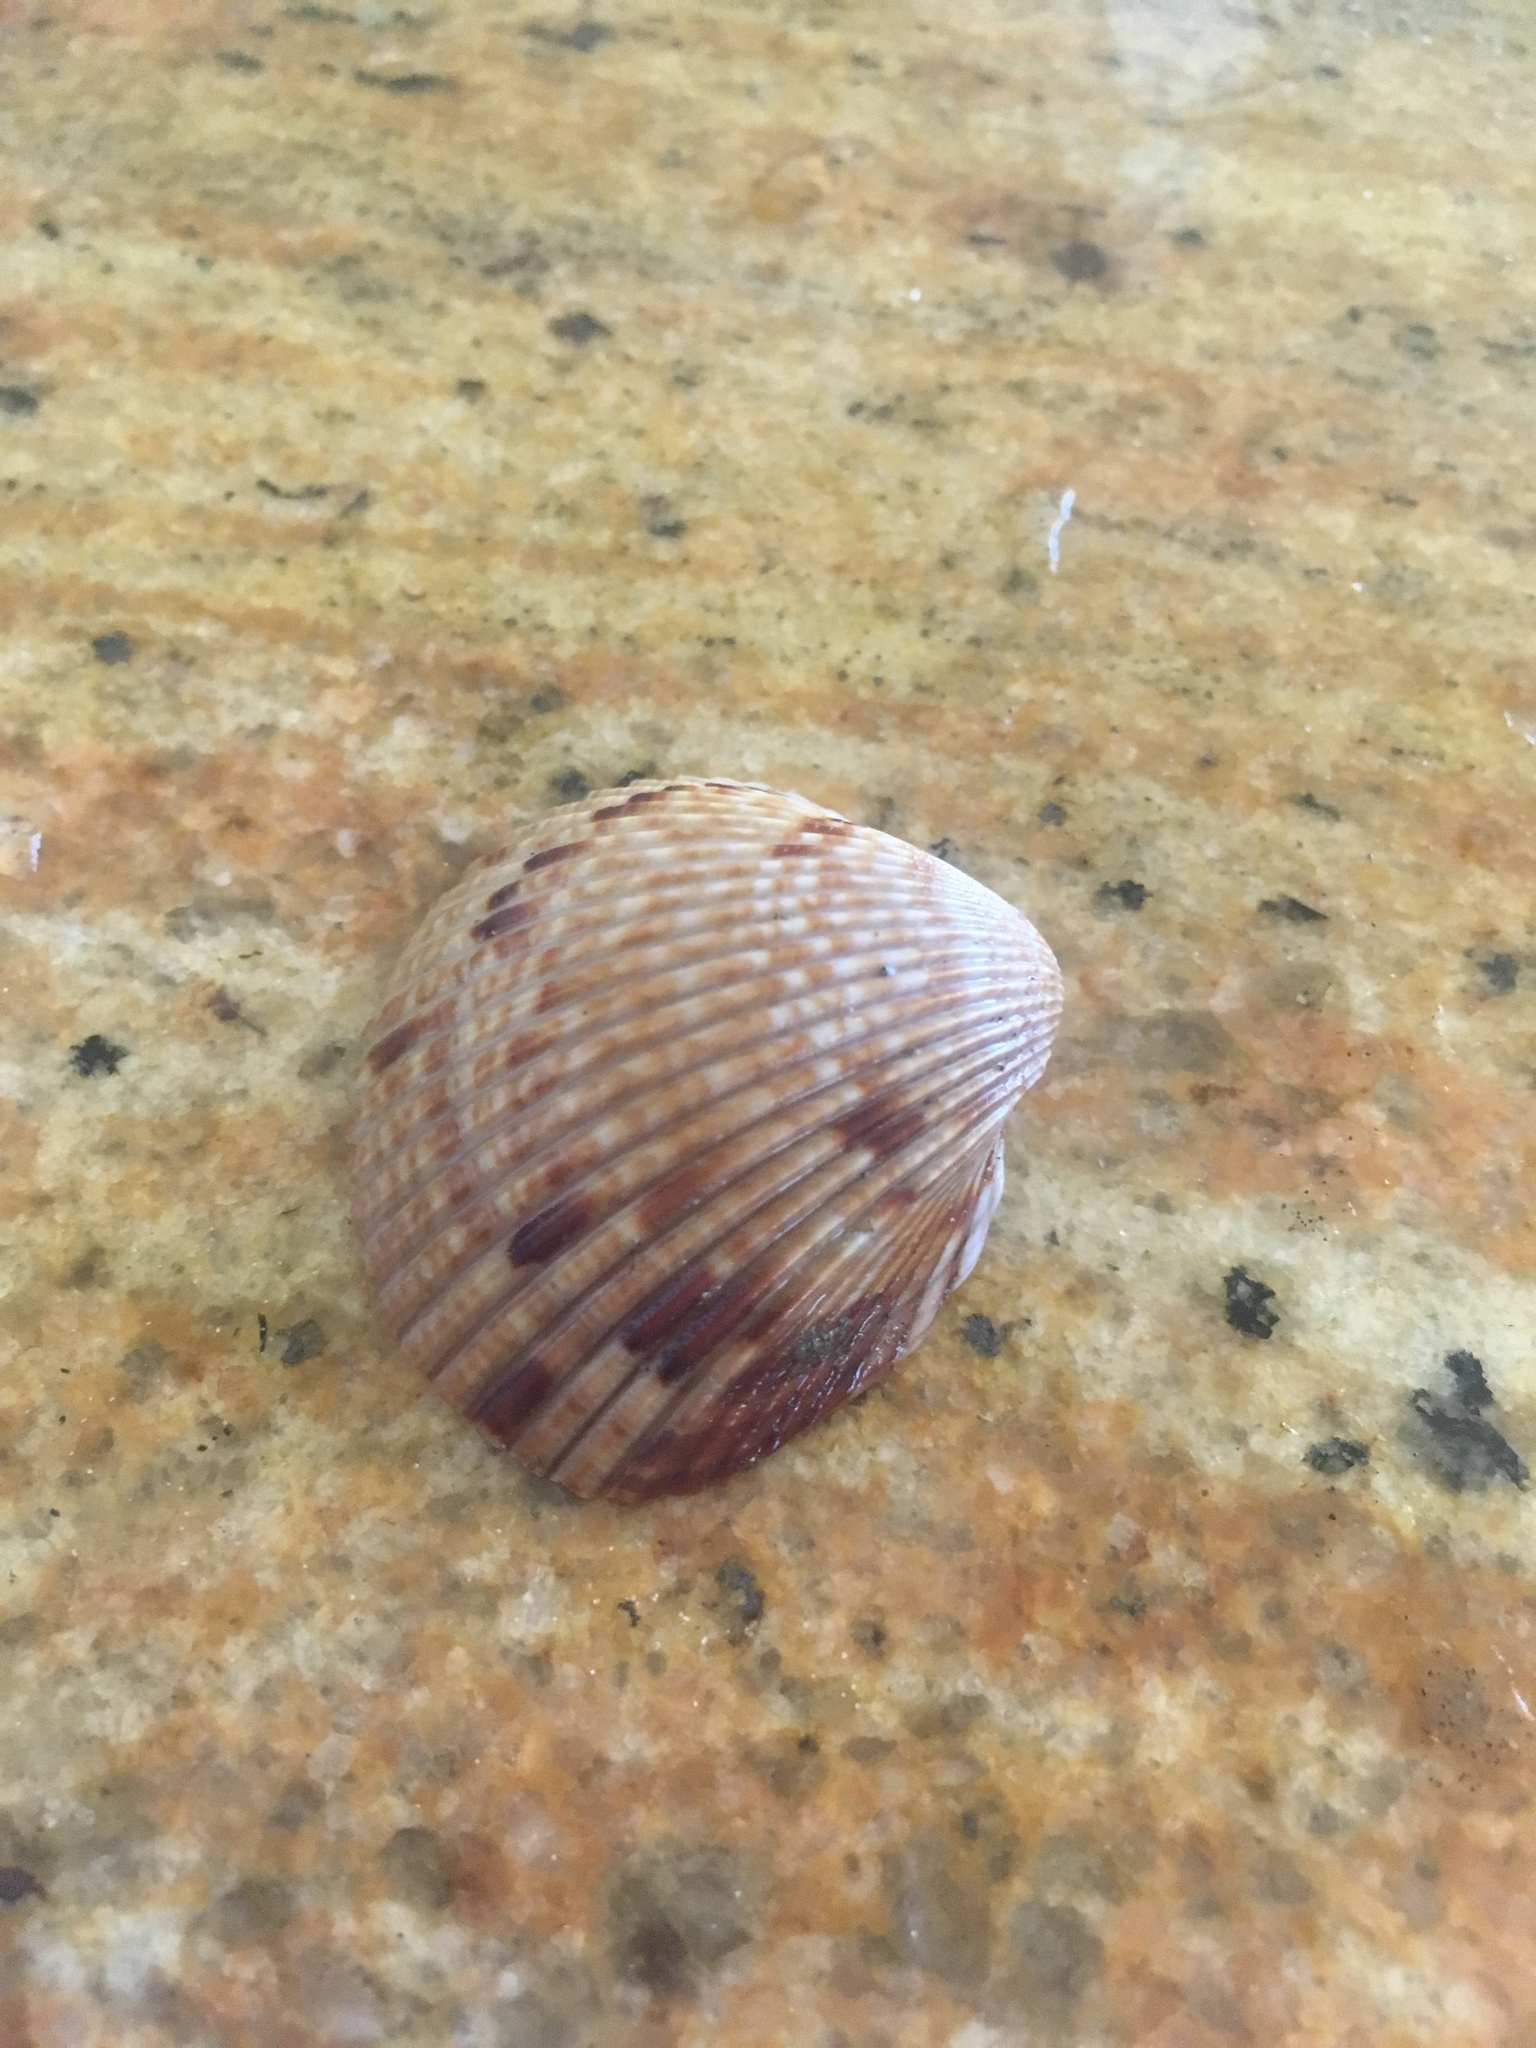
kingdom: Animalia
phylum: Mollusca
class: Bivalvia
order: Cardiida
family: Cardiidae
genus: Dinocardium
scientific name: Dinocardium robustum
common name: Atlantic giant cockle
